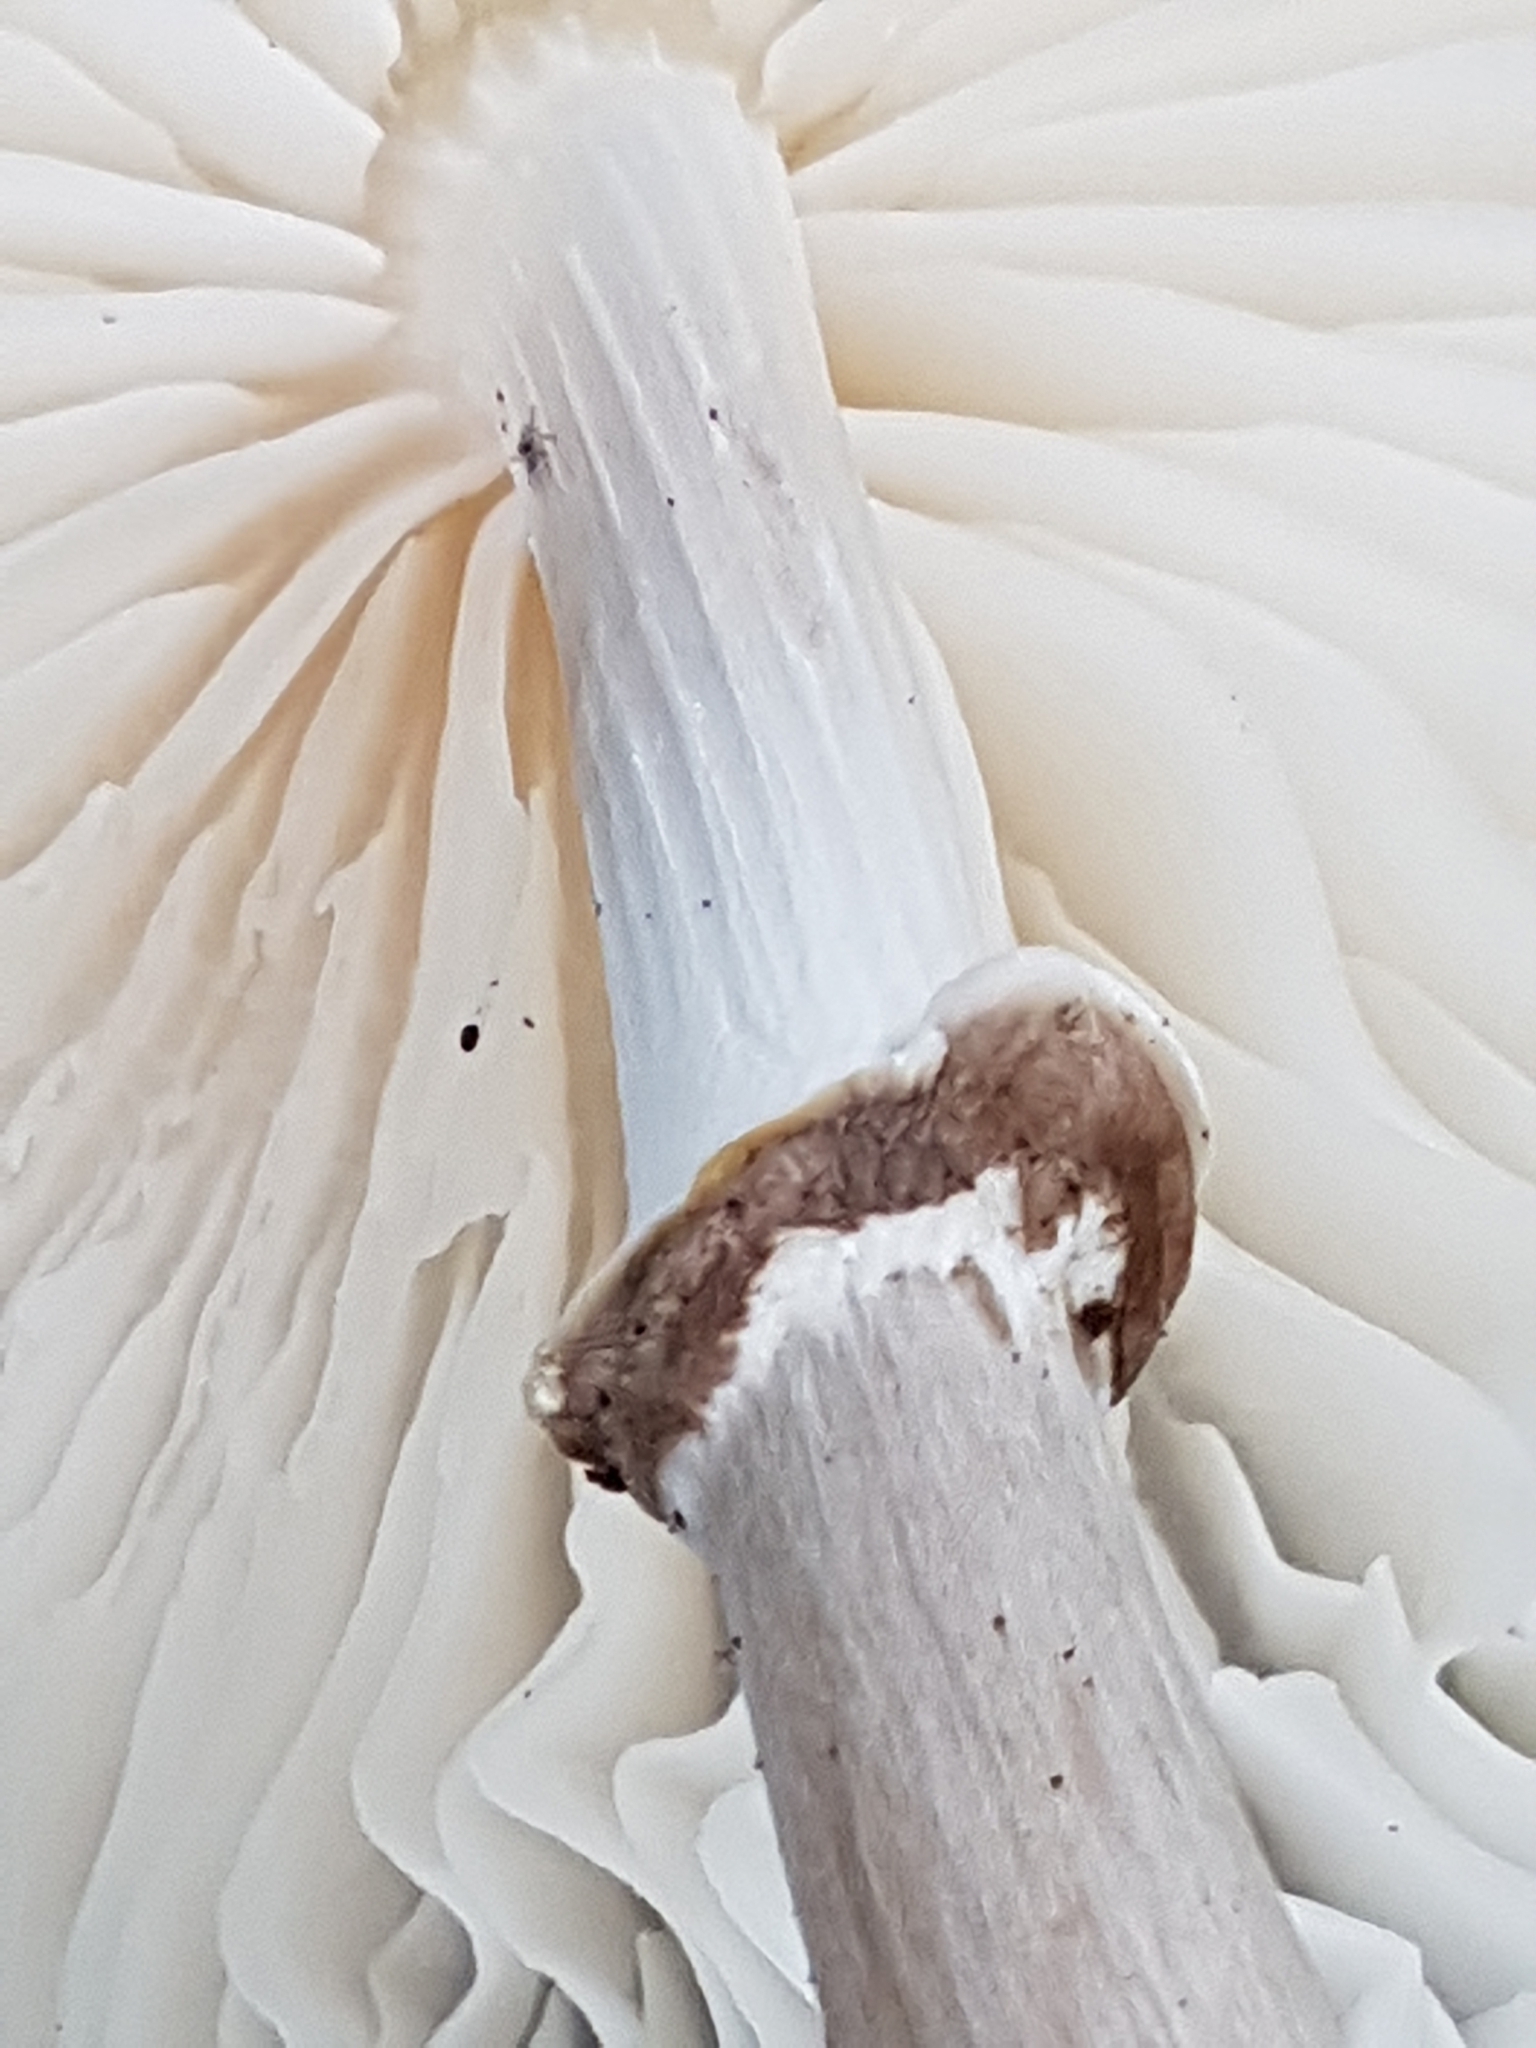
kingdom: Fungi
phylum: Basidiomycota
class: Agaricomycetes
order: Agaricales
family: Physalacriaceae
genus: Mucidula
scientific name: Mucidula mucida
